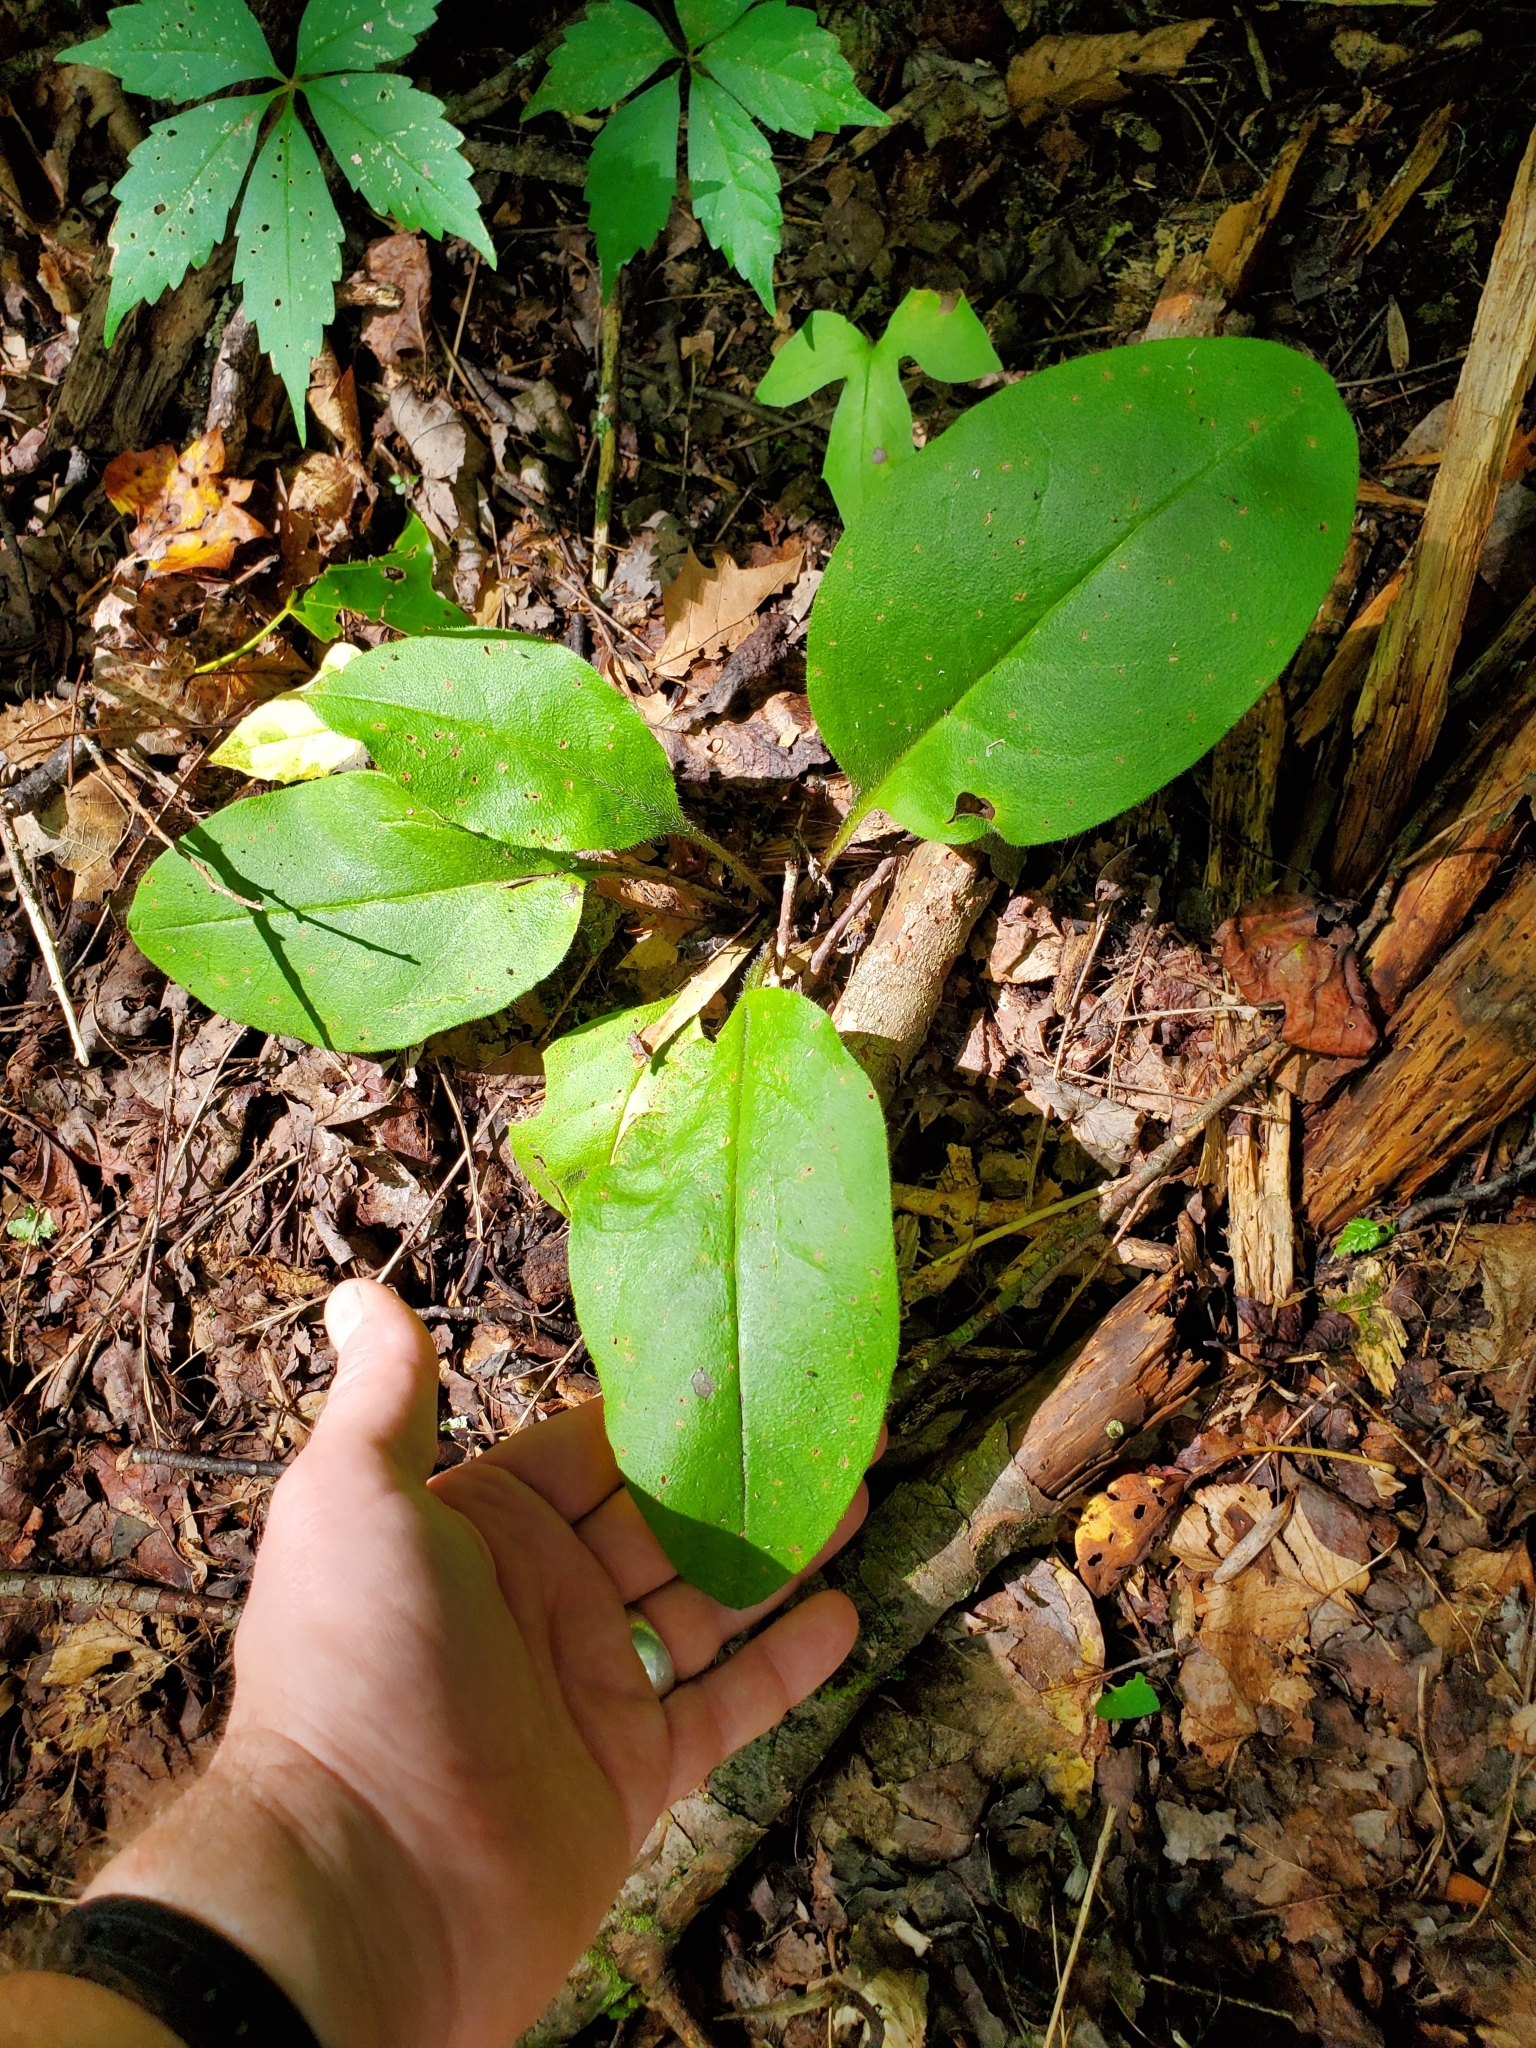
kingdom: Plantae
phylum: Tracheophyta
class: Magnoliopsida
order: Boraginales
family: Boraginaceae
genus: Andersonglossum
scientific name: Andersonglossum virginianum
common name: Wild comfrey
